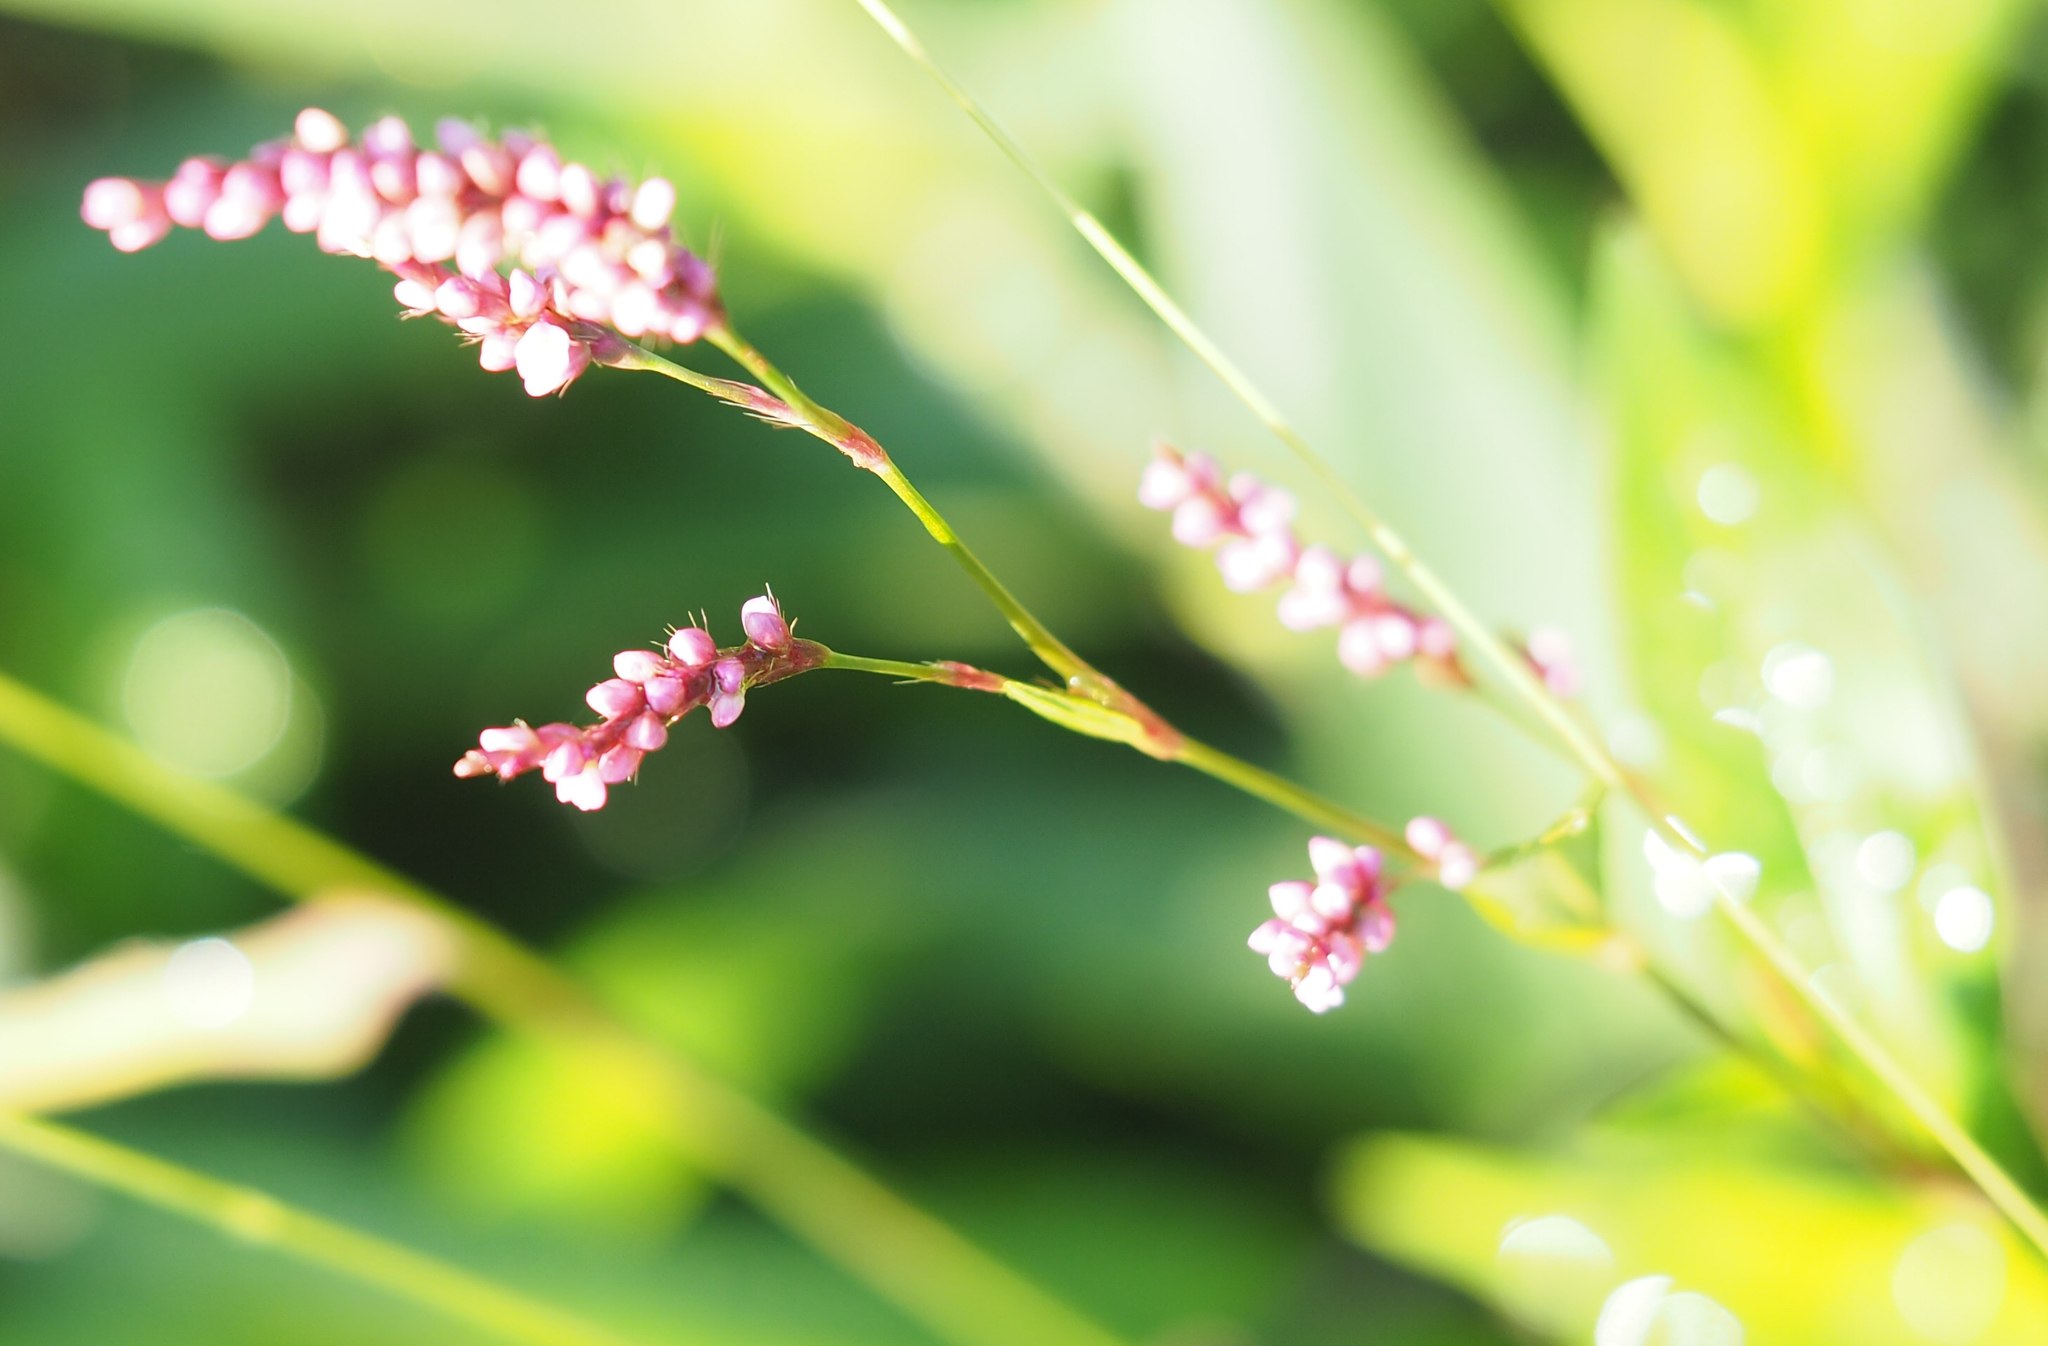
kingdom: Plantae
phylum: Tracheophyta
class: Magnoliopsida
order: Caryophyllales
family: Polygonaceae
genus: Persicaria
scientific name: Persicaria longiseta
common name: Bristly lady's-thumb
